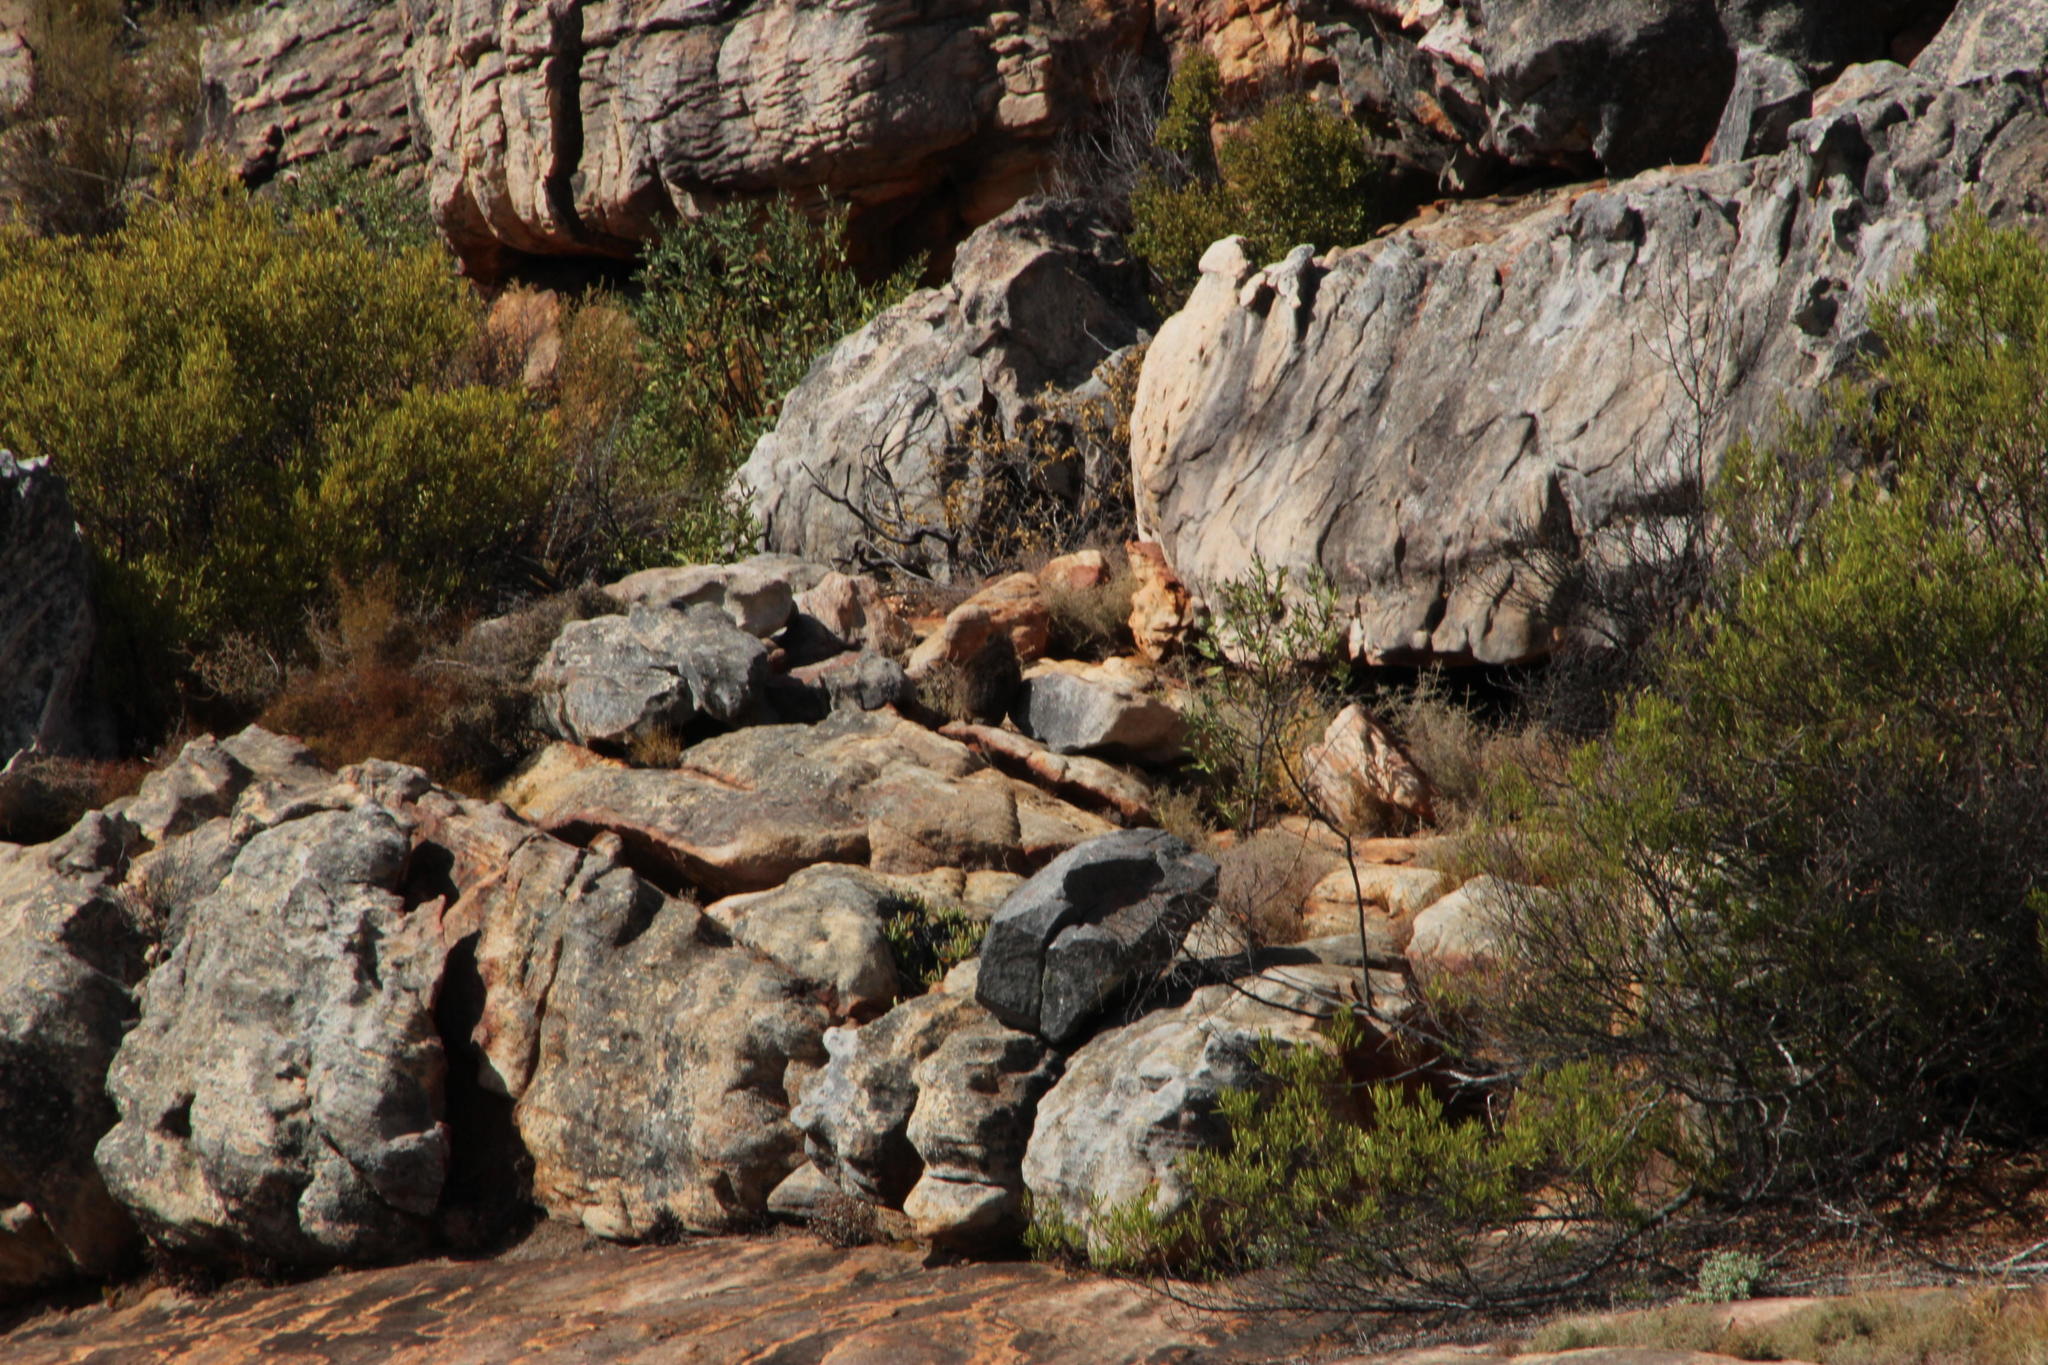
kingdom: Animalia
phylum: Chordata
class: Mammalia
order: Hyracoidea
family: Procaviidae
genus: Procavia
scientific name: Procavia capensis
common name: Rock hyrax
